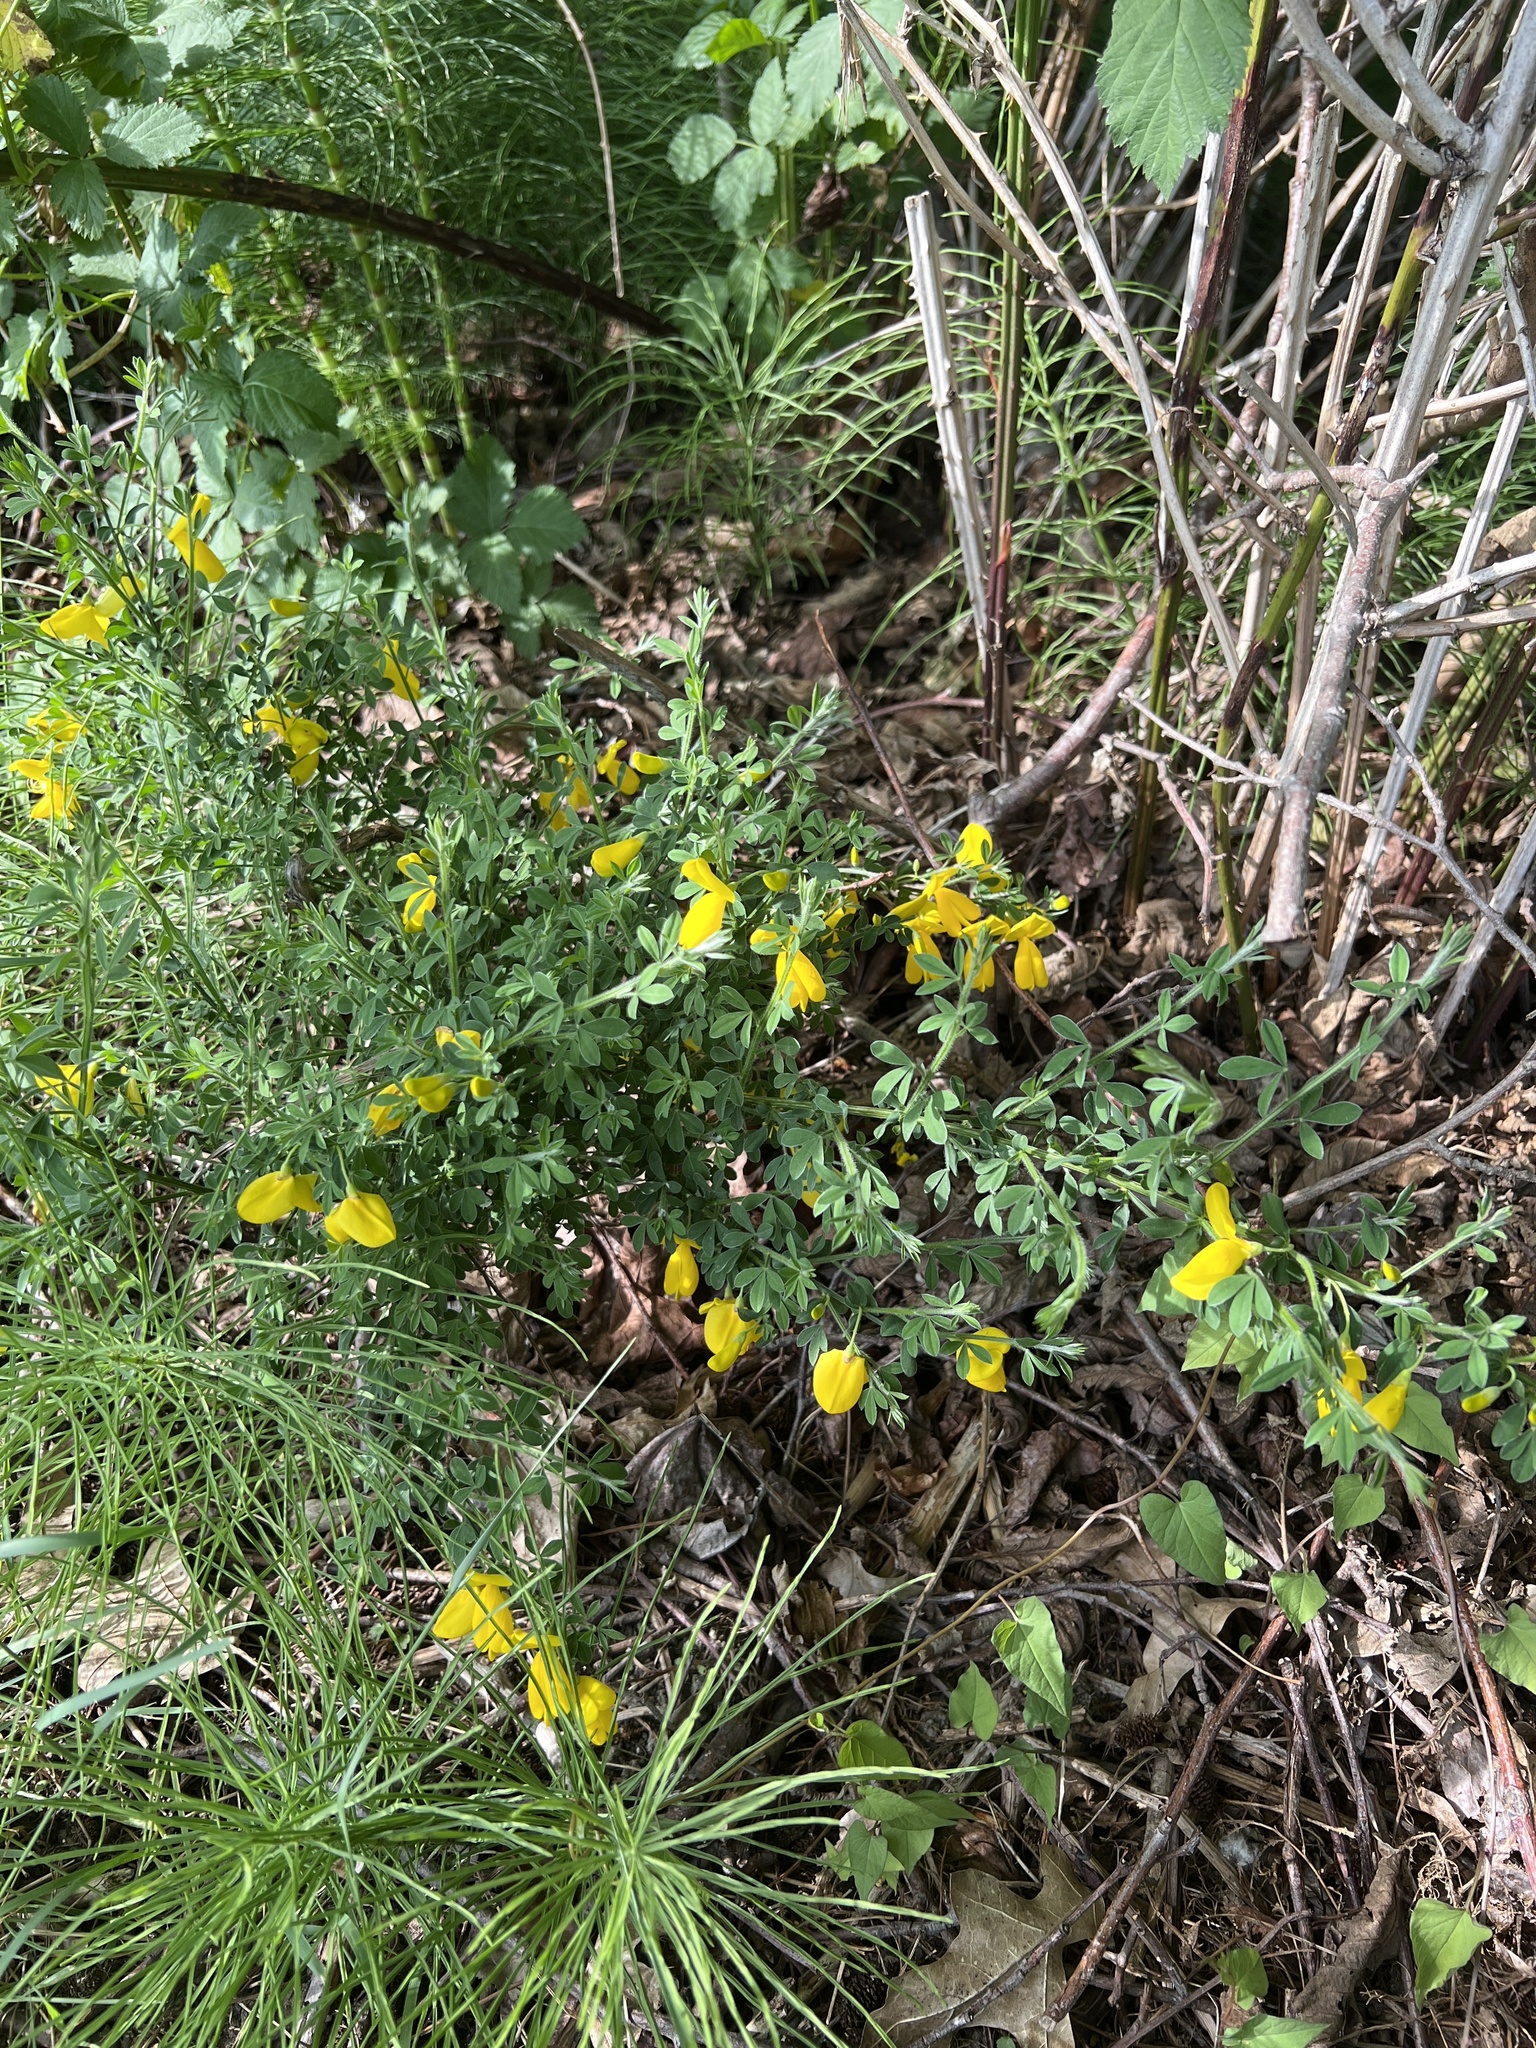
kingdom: Plantae
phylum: Tracheophyta
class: Magnoliopsida
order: Fabales
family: Fabaceae
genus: Cytisus
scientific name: Cytisus scoparius
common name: Scotch broom
